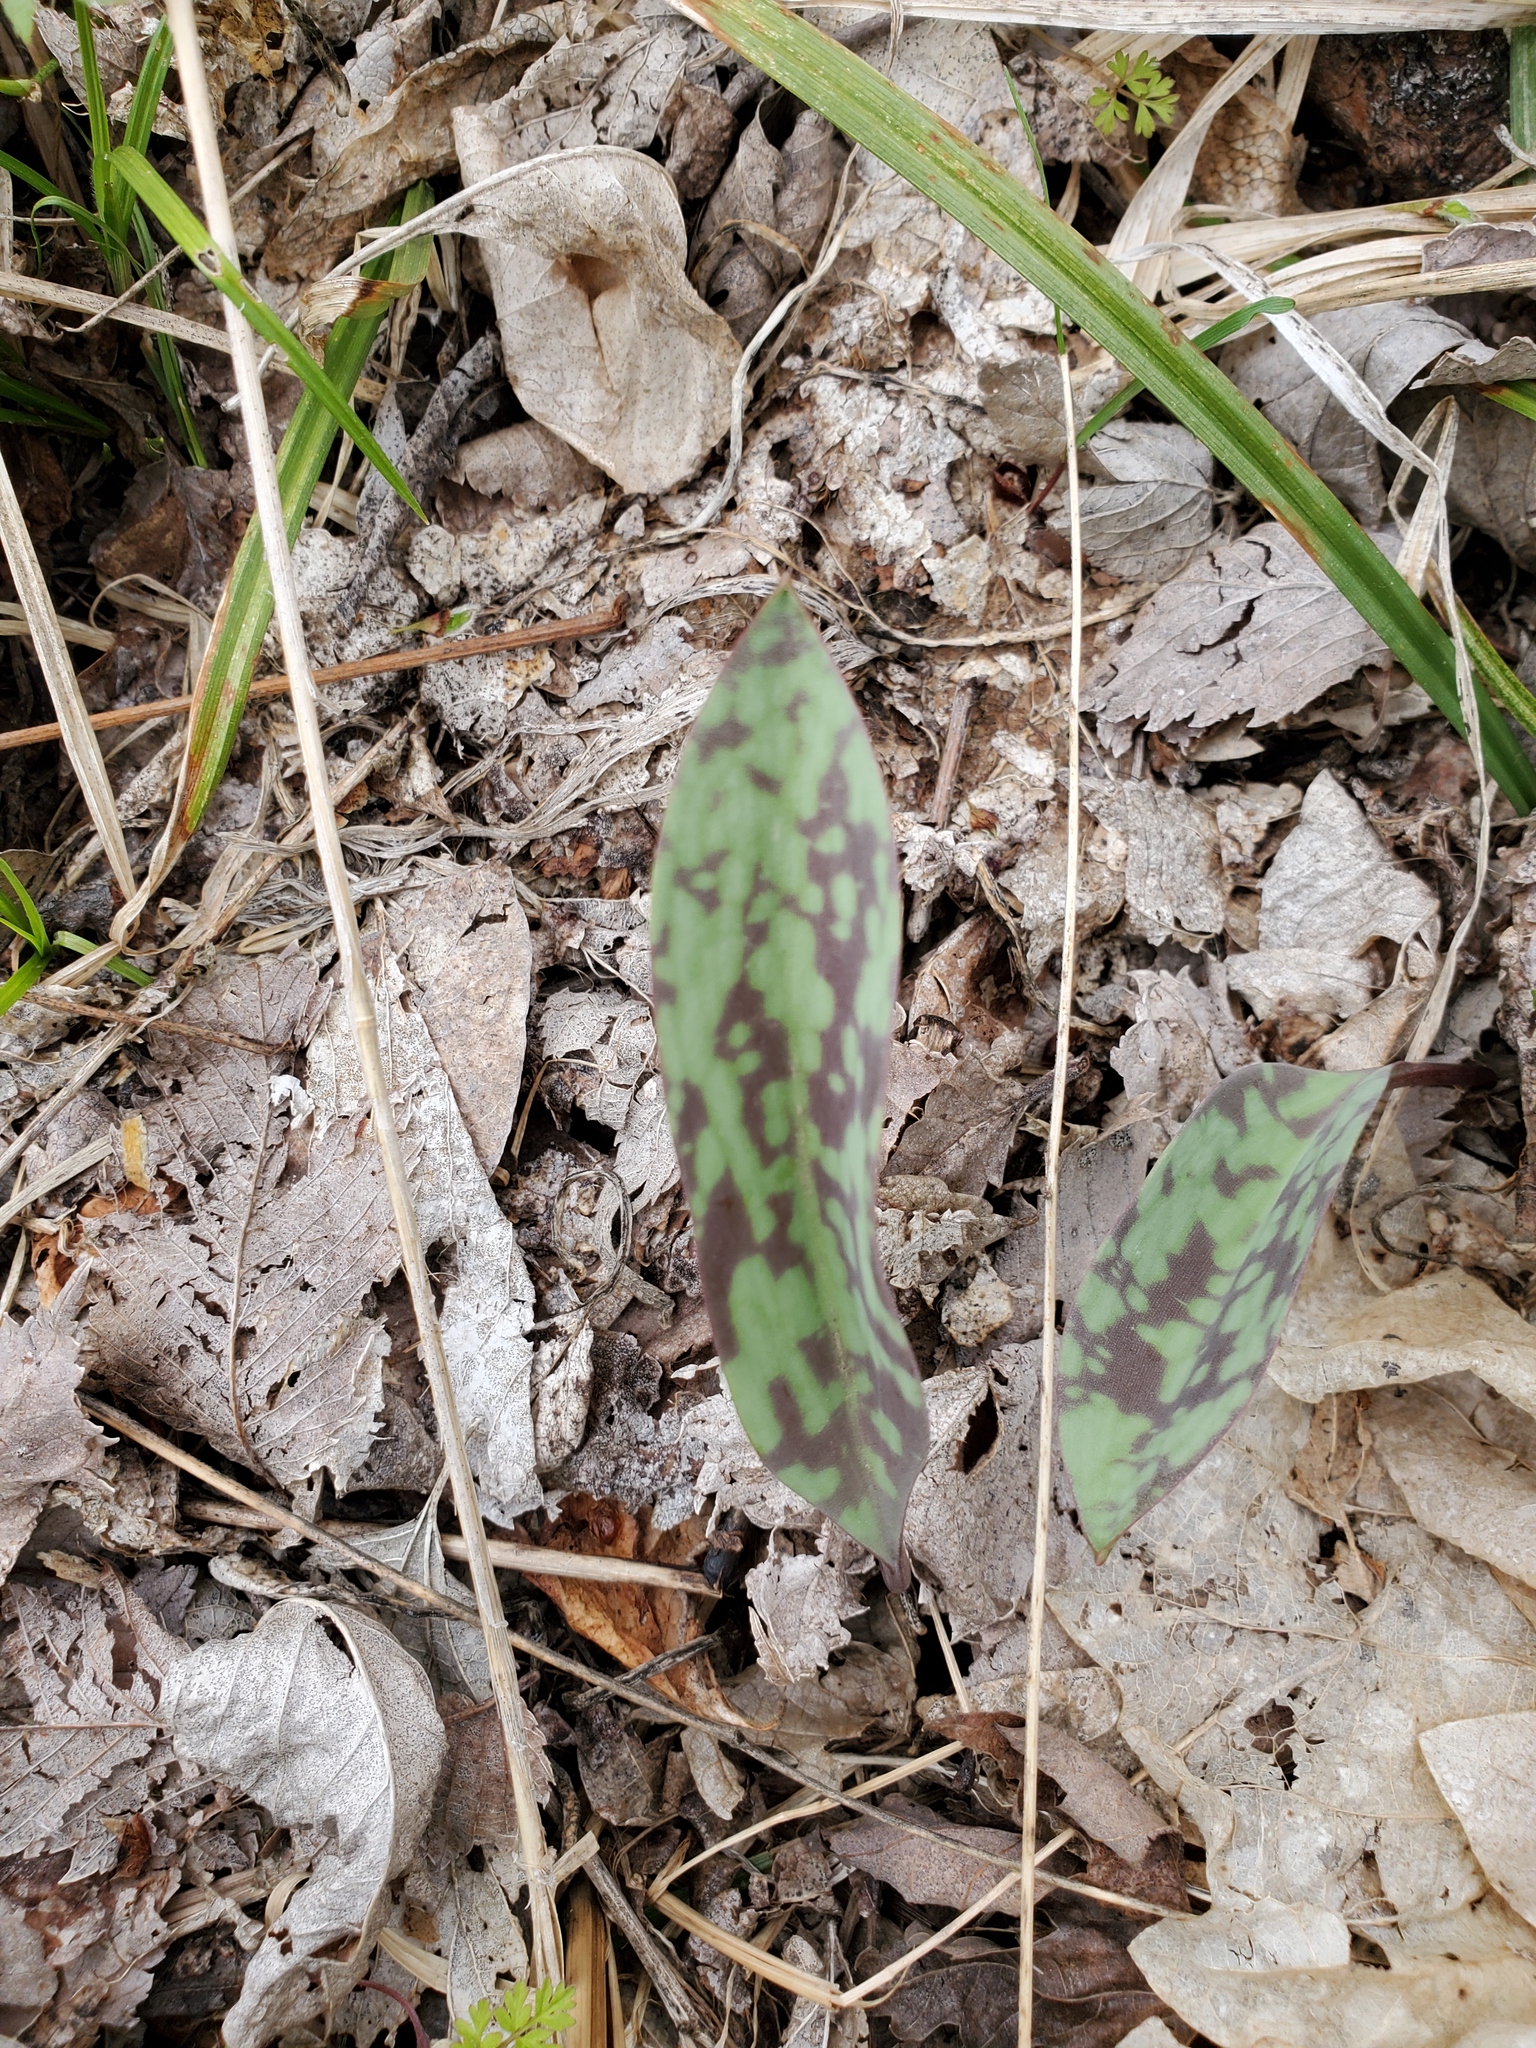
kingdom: Plantae
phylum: Tracheophyta
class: Liliopsida
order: Liliales
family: Liliaceae
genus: Erythronium
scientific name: Erythronium albidum
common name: White trout-lily
